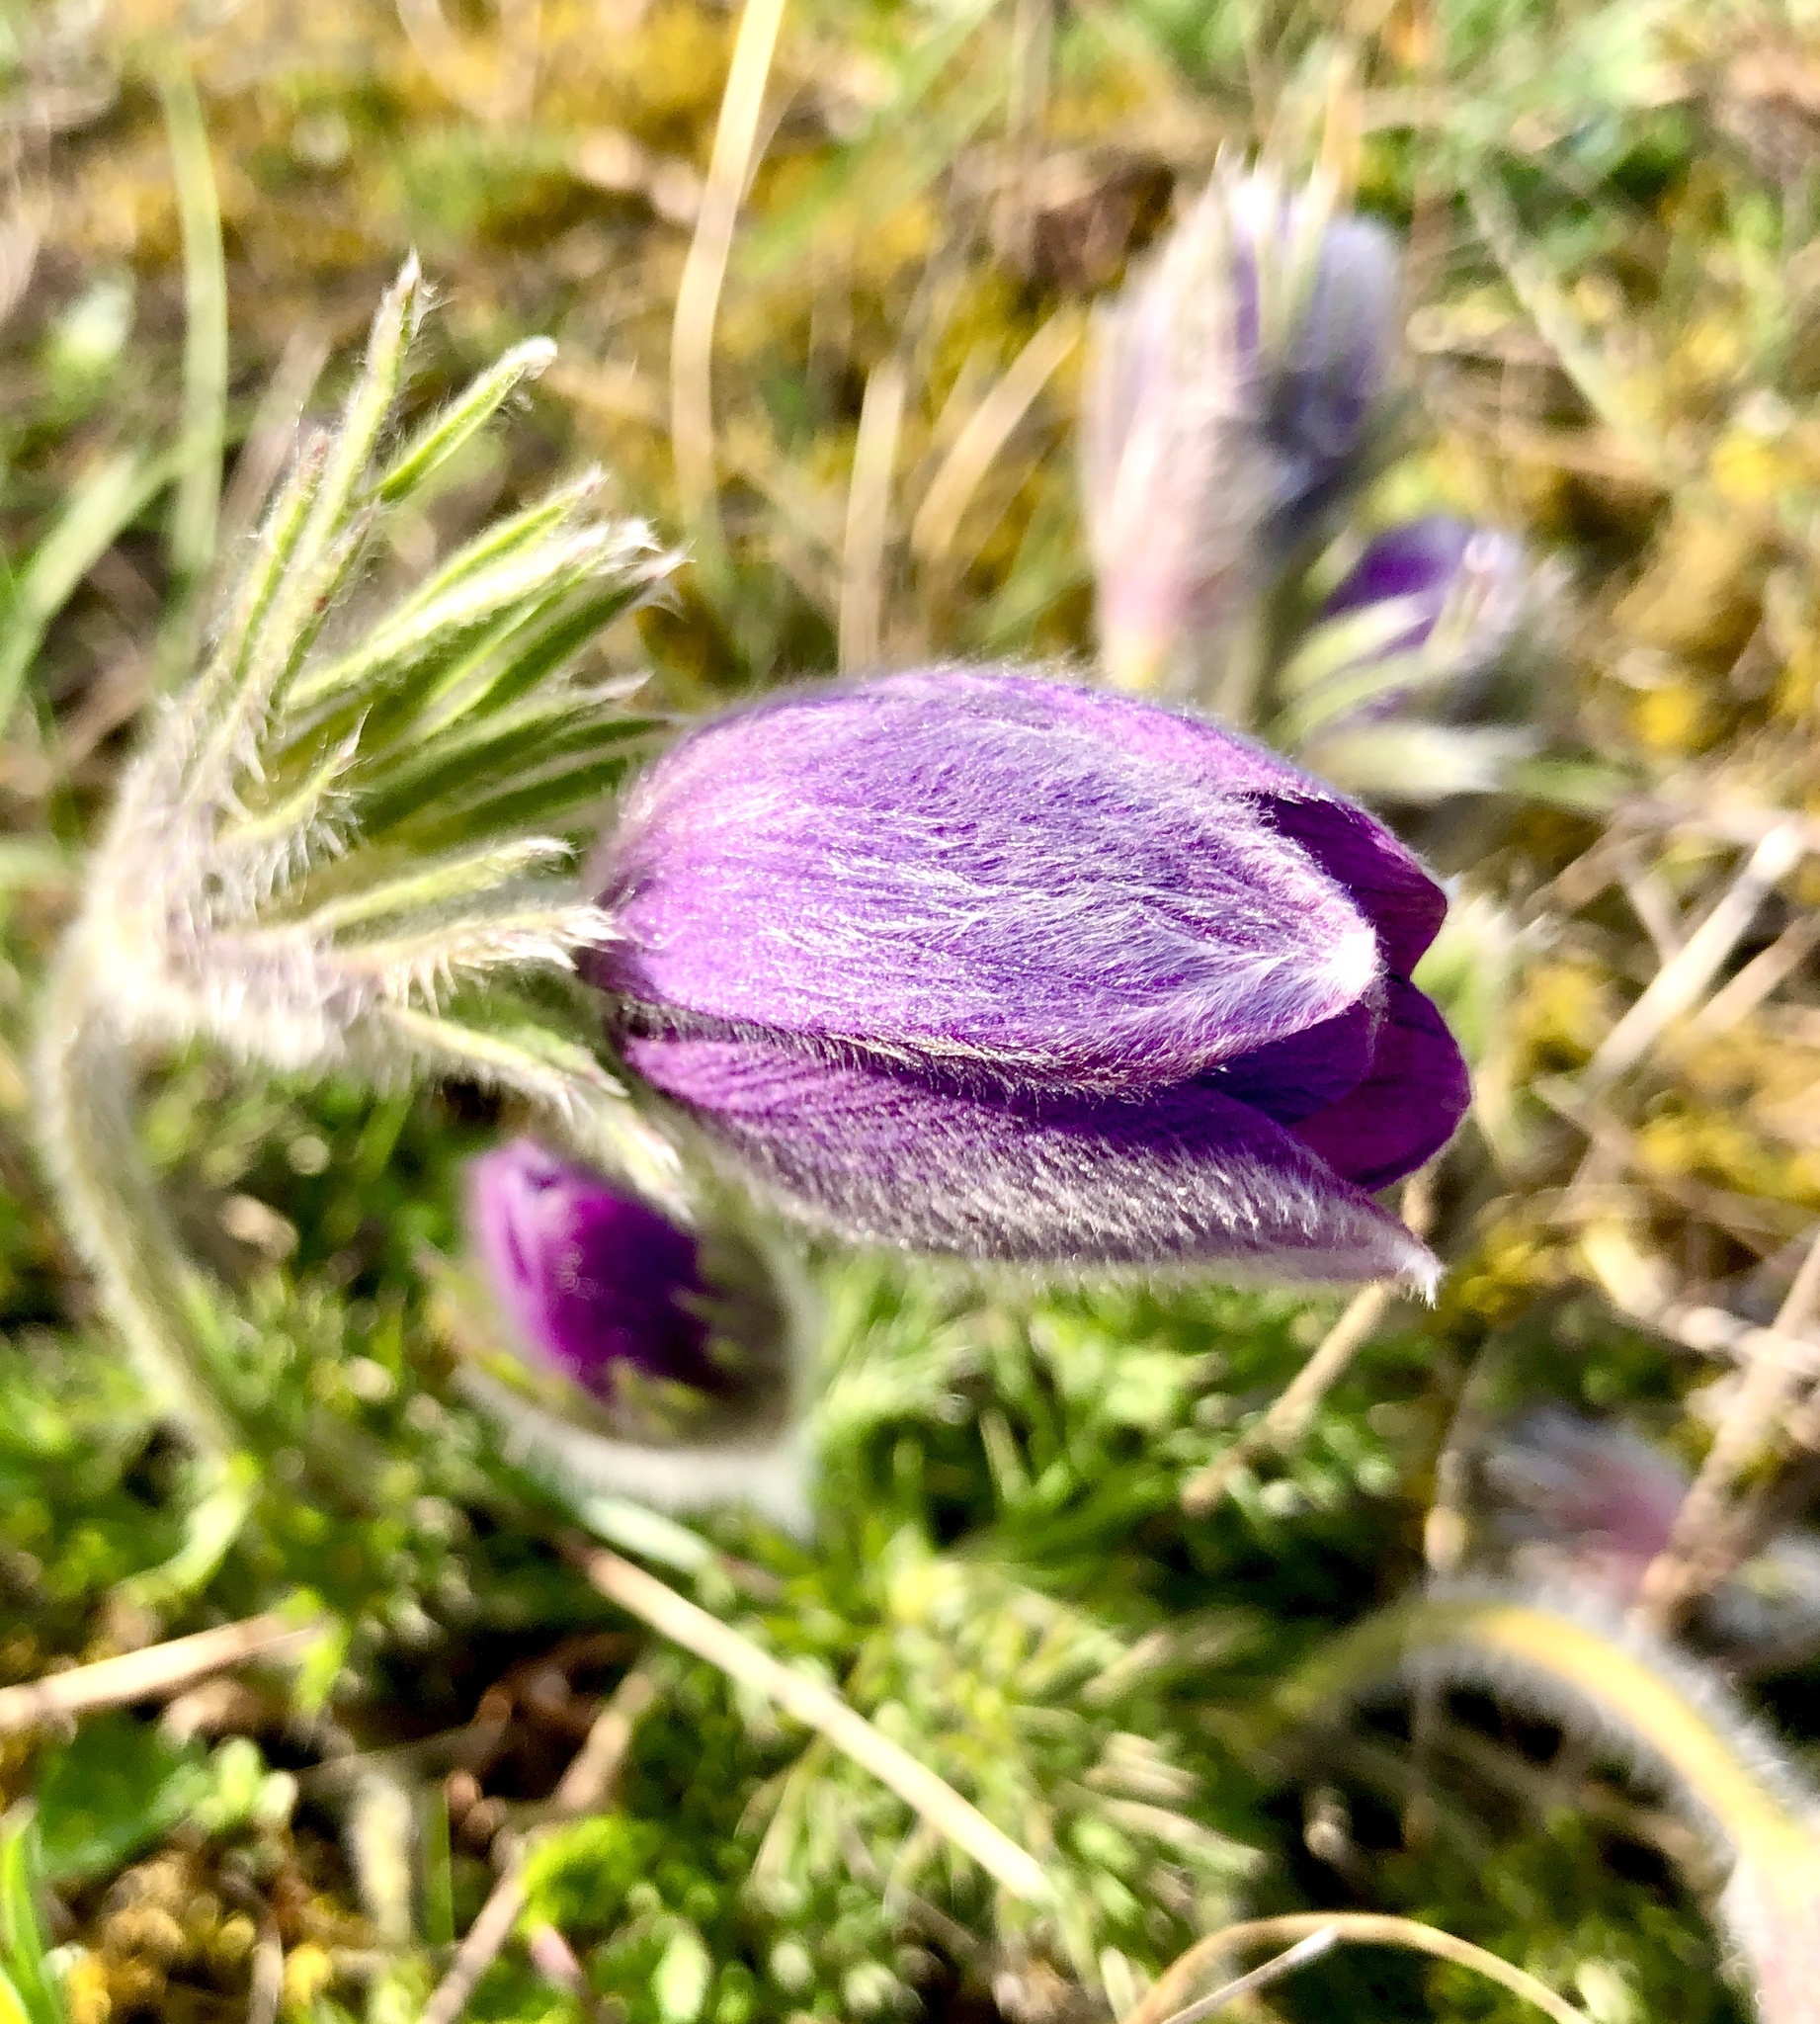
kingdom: Plantae
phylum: Tracheophyta
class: Magnoliopsida
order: Ranunculales
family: Ranunculaceae
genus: Pulsatilla
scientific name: Pulsatilla vulgaris
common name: Pasqueflower
